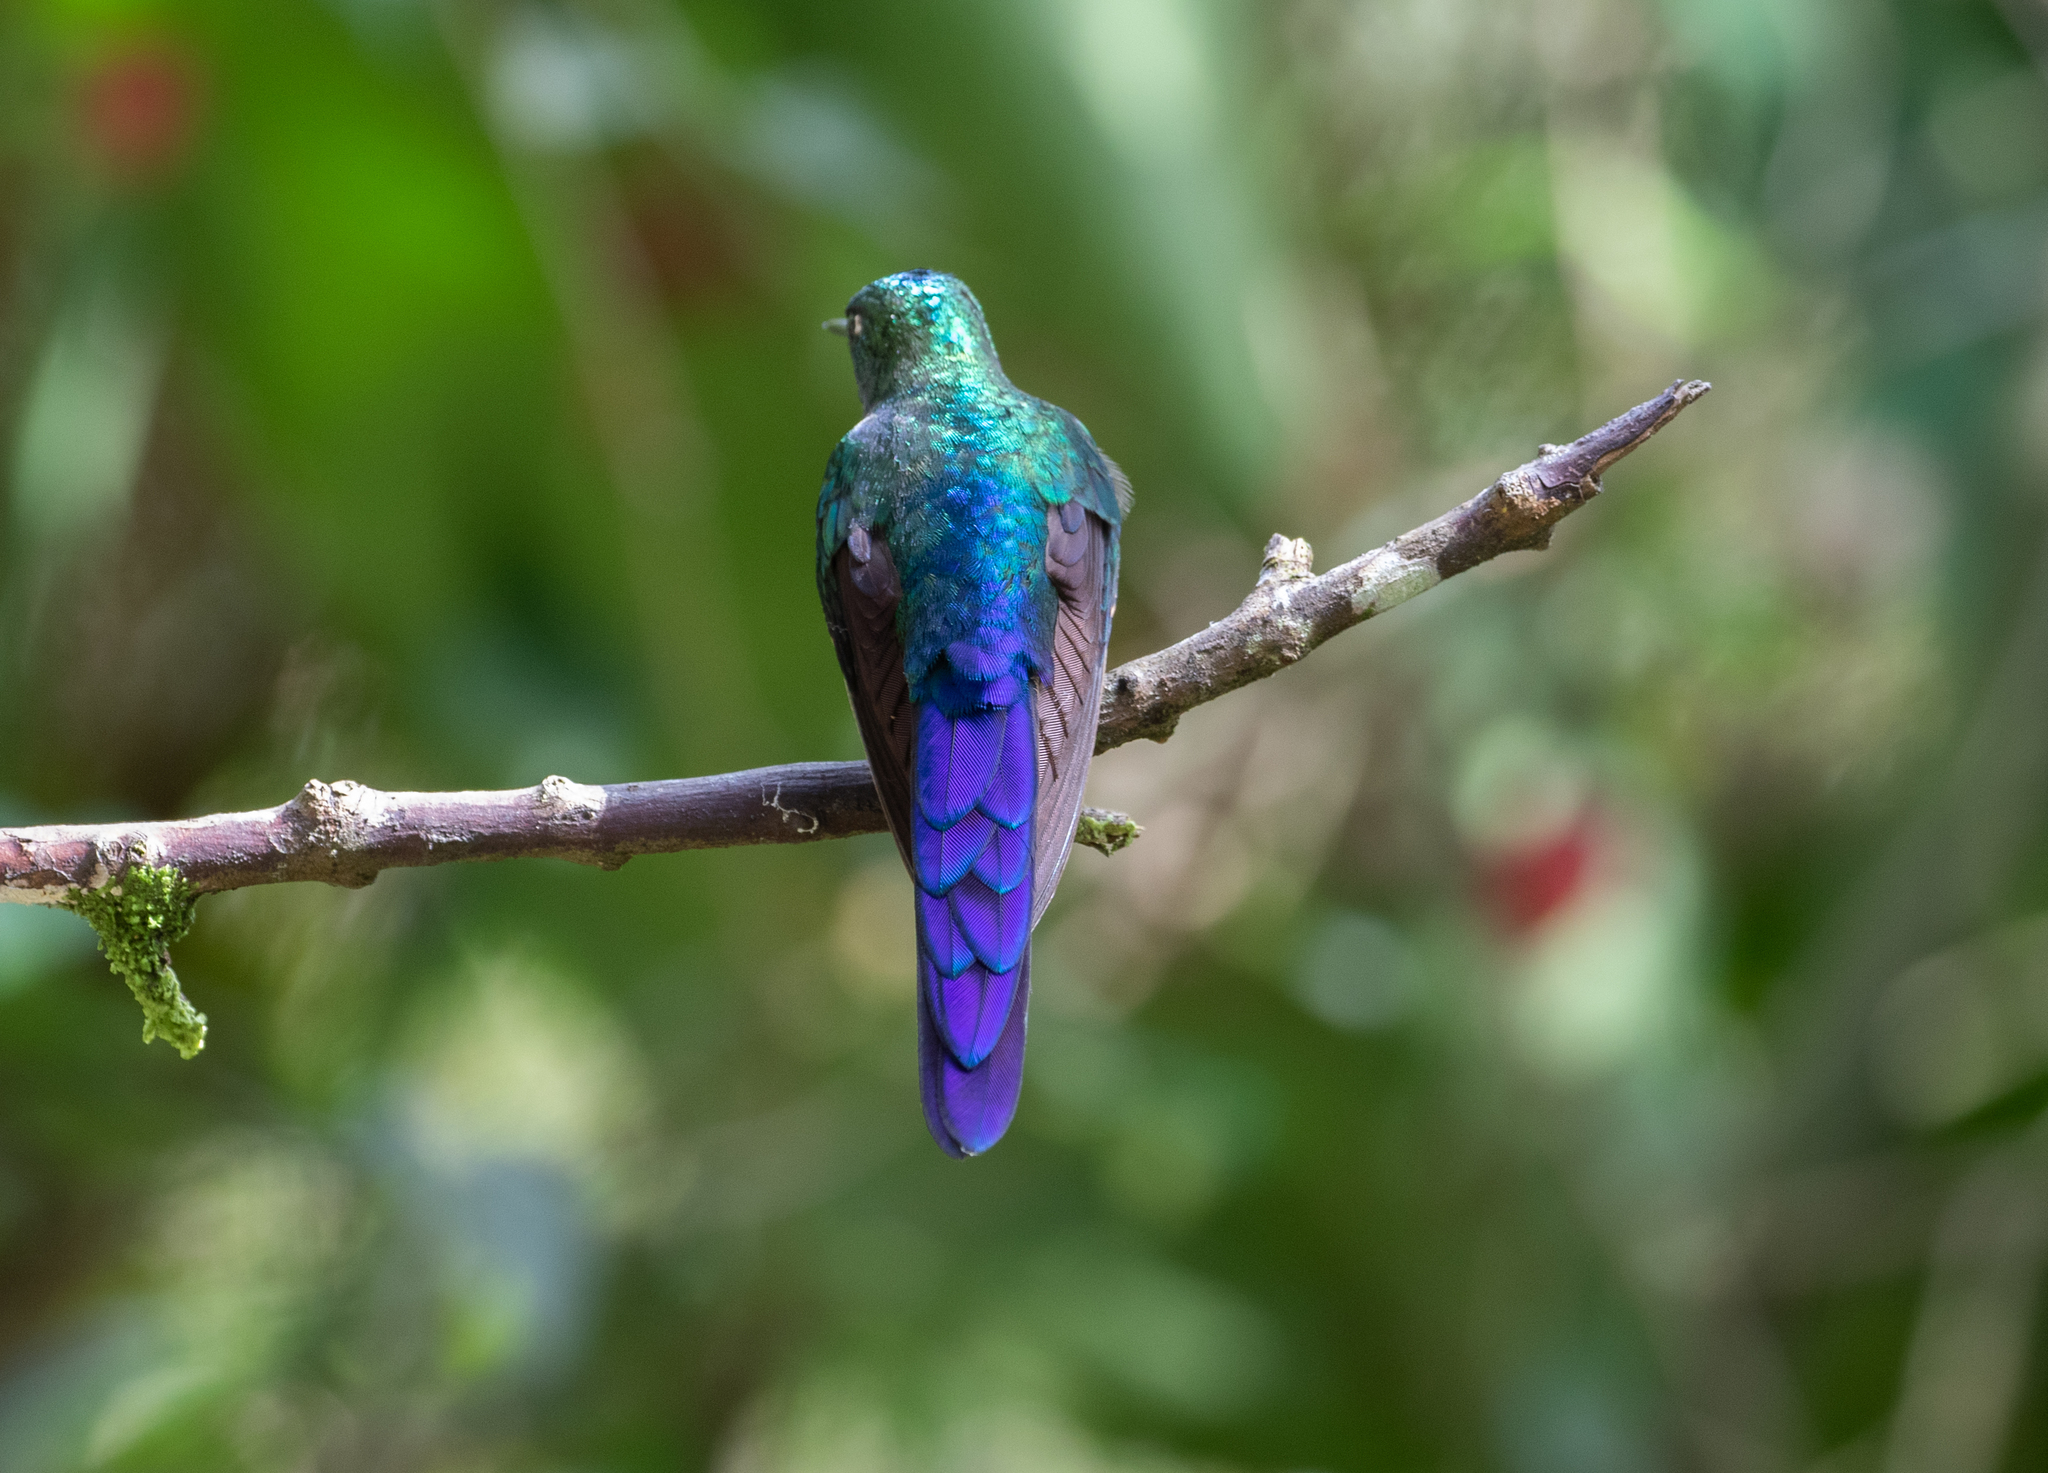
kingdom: Animalia
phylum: Chordata
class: Aves
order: Apodiformes
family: Trochilidae
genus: Aglaiocercus
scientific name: Aglaiocercus coelestis
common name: Violet-tailed sylph
